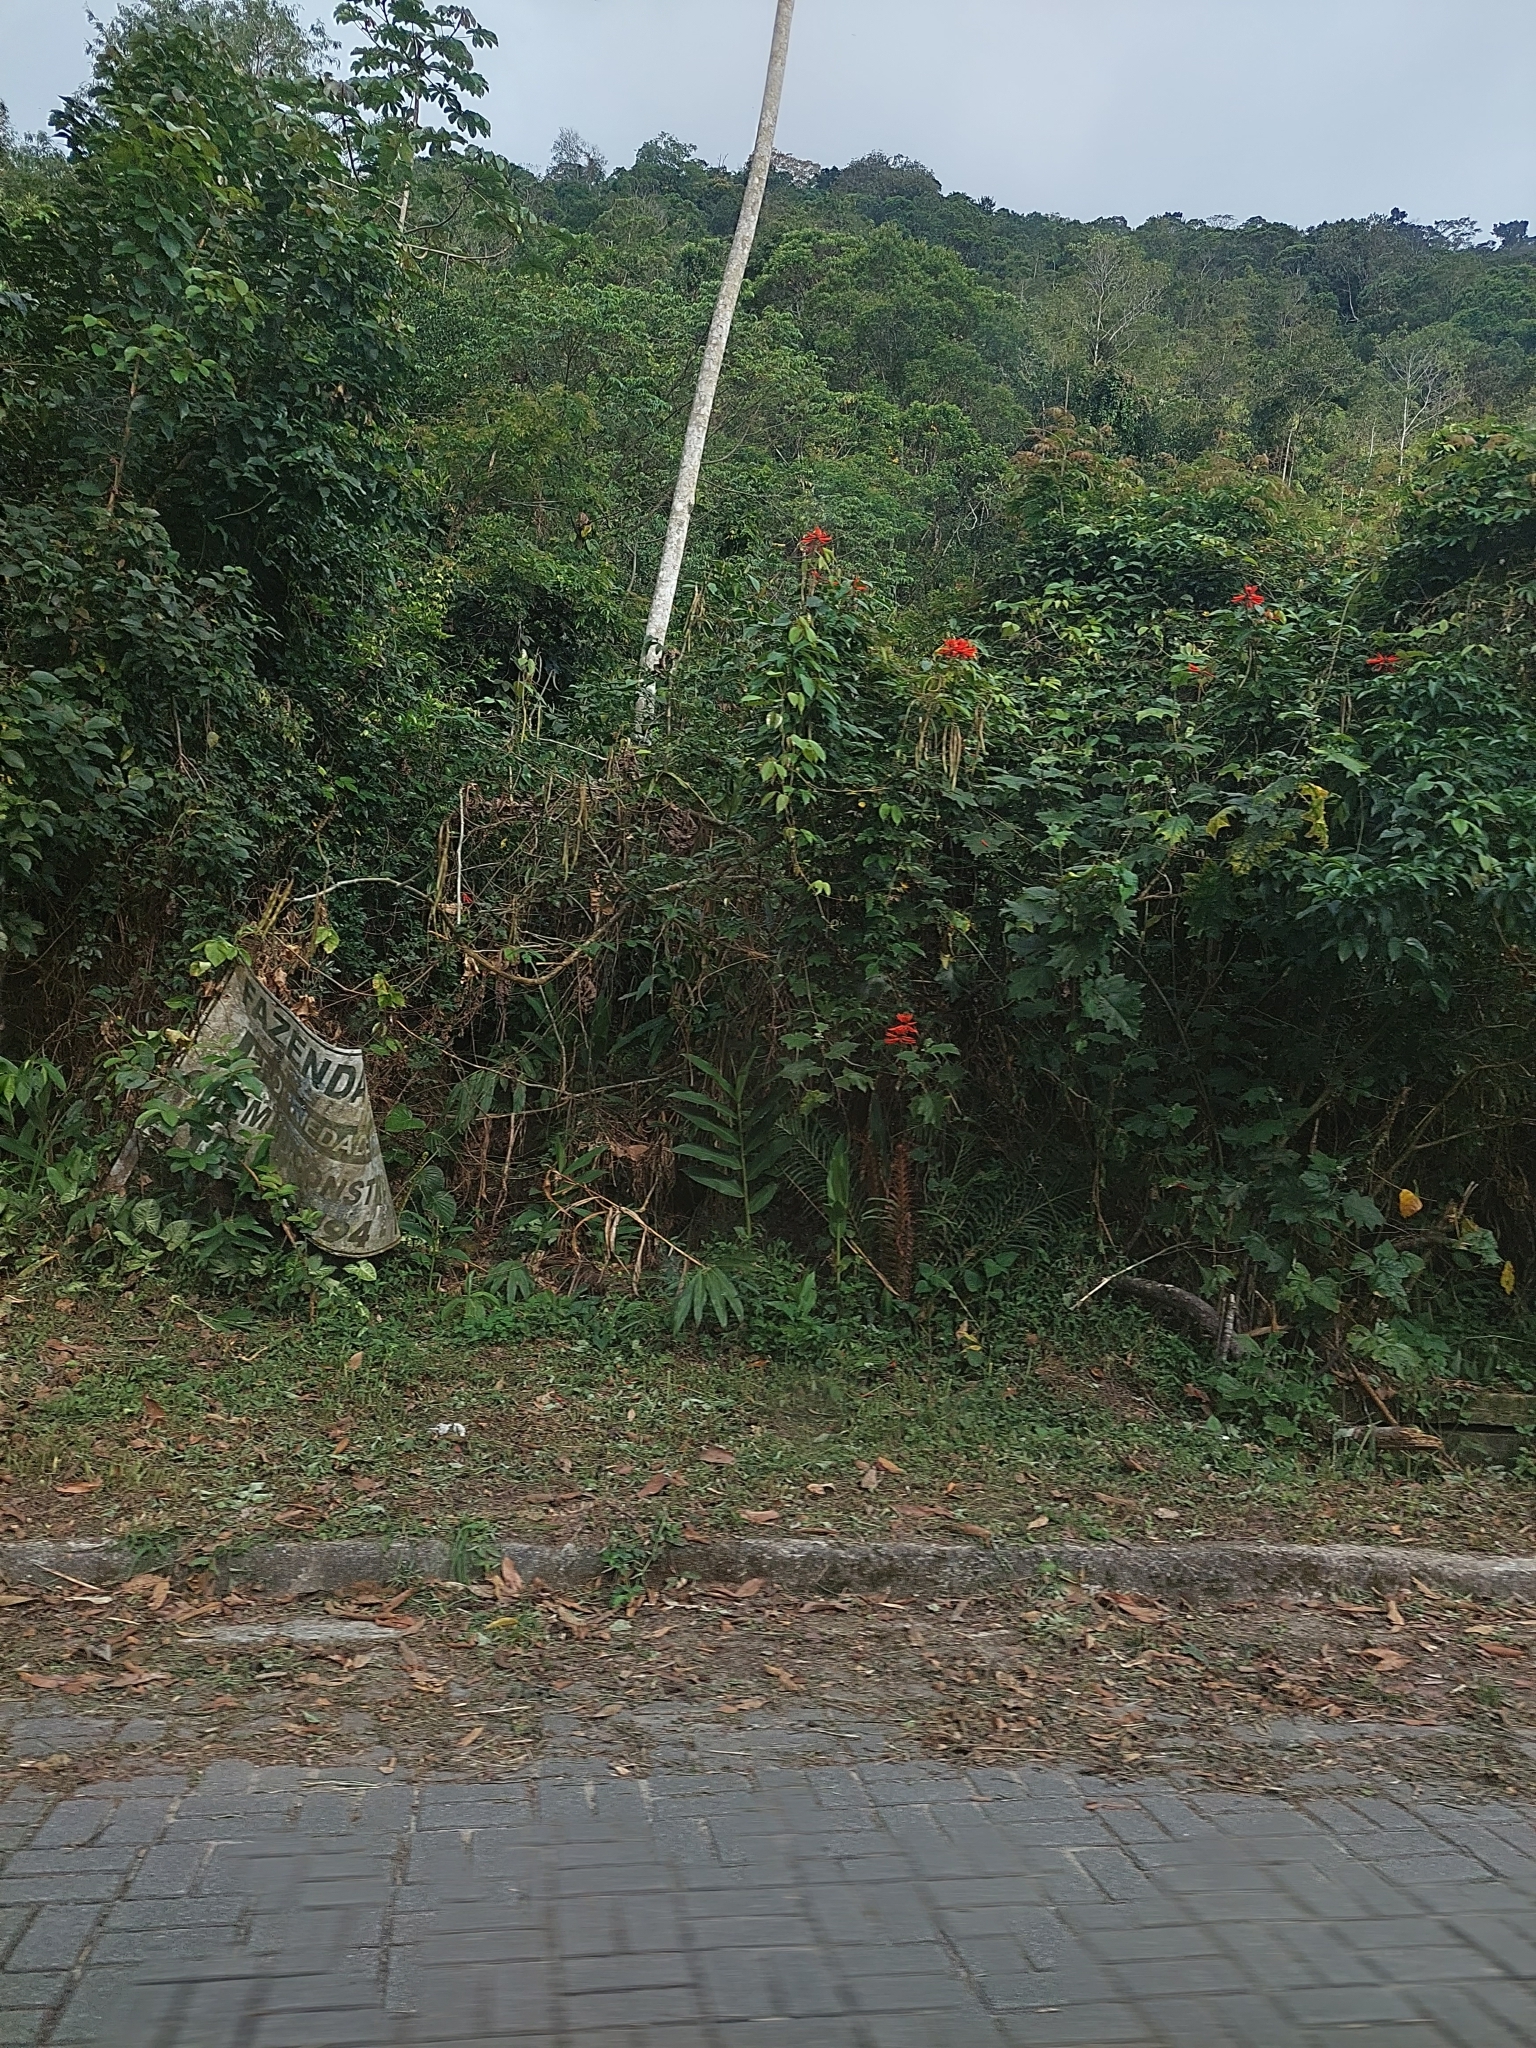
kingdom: Plantae
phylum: Tracheophyta
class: Liliopsida
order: Zingiberales
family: Zingiberaceae
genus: Hedychium
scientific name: Hedychium coronarium
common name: White garland-lily
